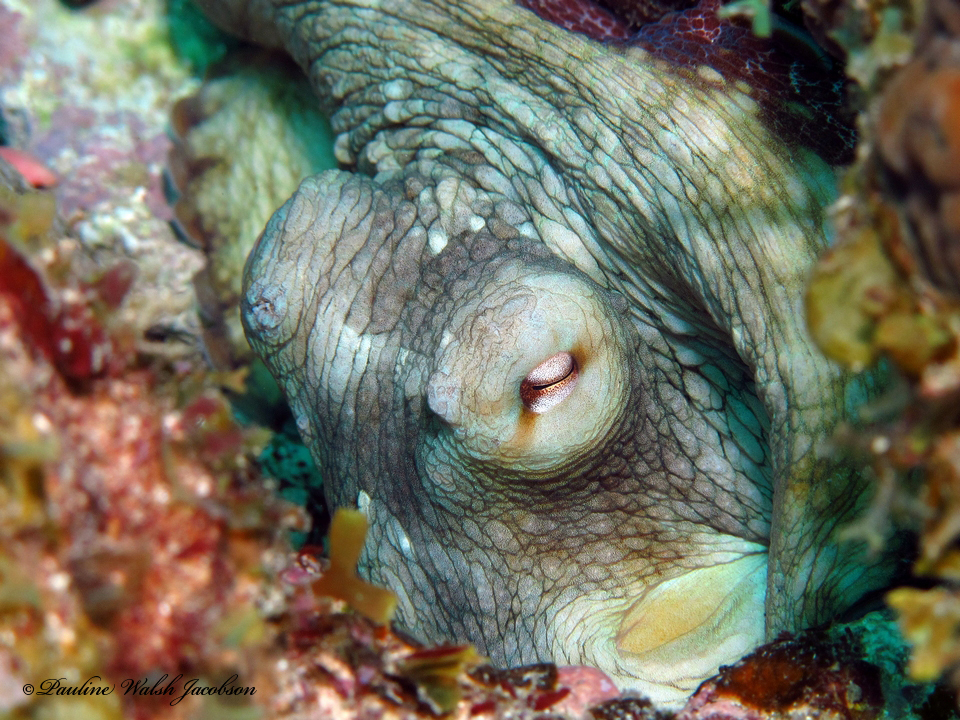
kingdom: Animalia
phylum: Mollusca
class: Cephalopoda
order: Octopoda
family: Octopodidae
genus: Octopus
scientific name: Octopus insularis
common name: Brazil reef octopus
